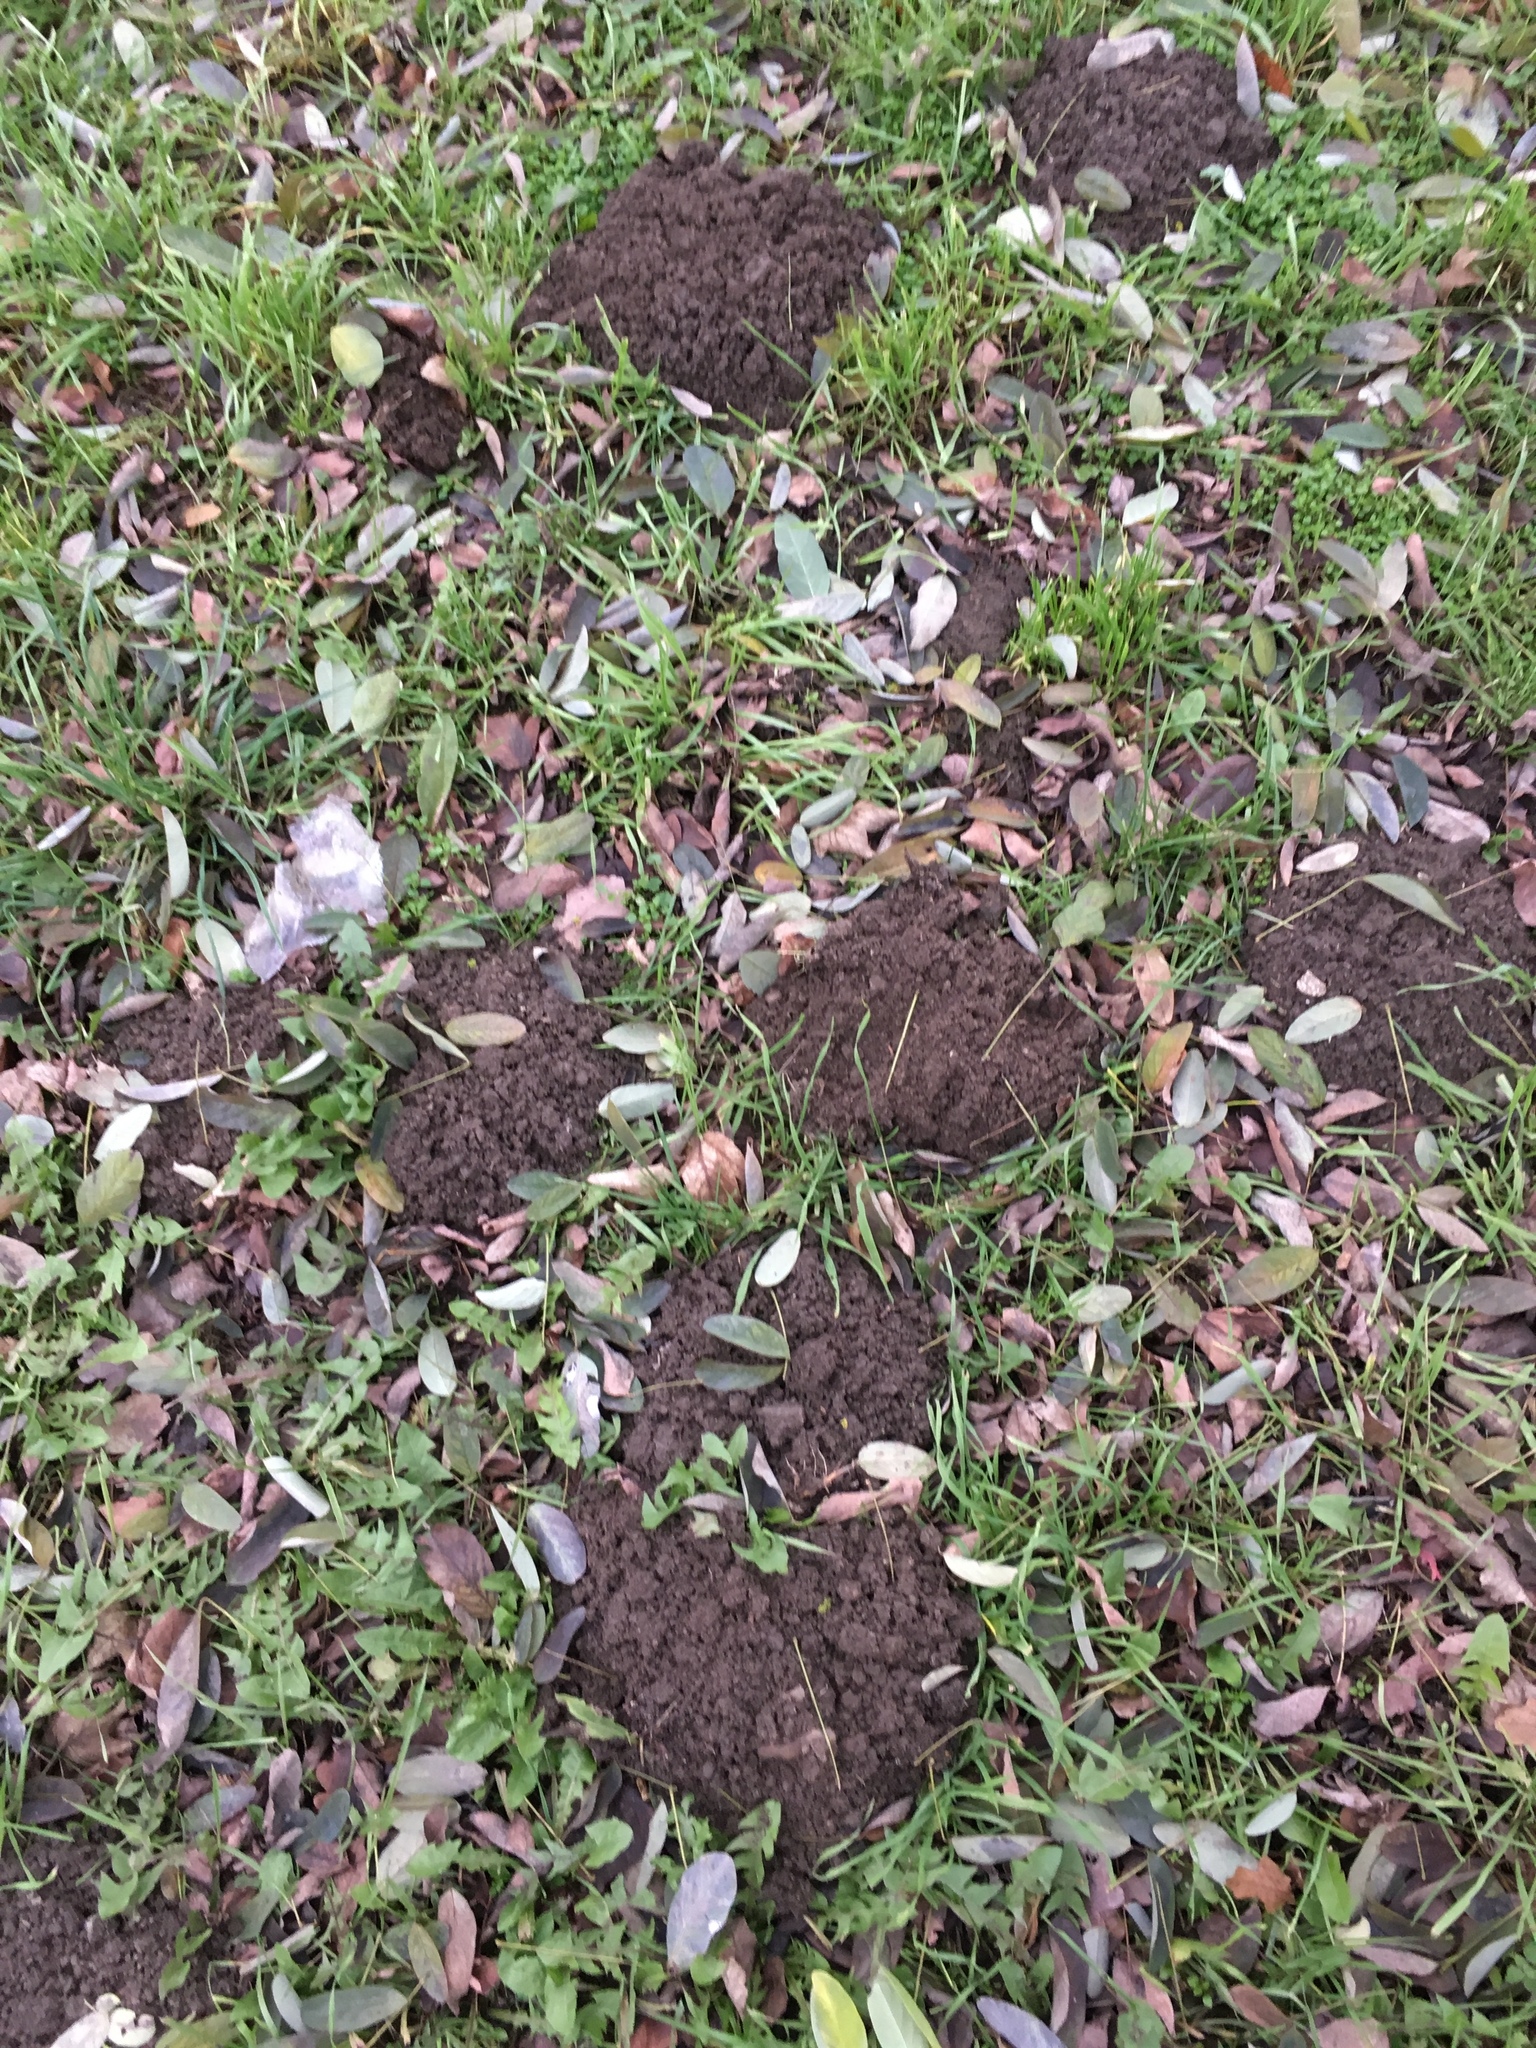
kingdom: Animalia
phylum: Chordata
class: Mammalia
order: Soricomorpha
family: Talpidae
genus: Talpa
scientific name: Talpa europaea
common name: European mole
